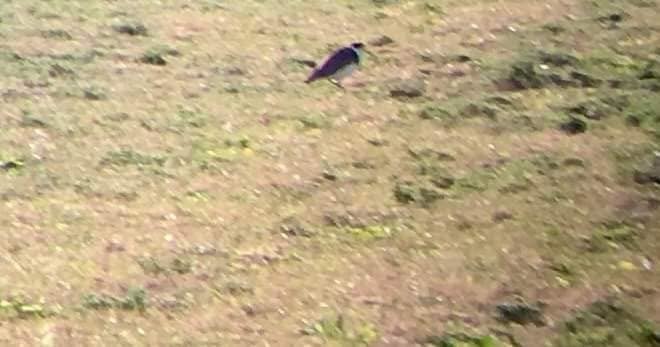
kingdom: Animalia
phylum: Chordata
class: Aves
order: Charadriiformes
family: Charadriidae
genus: Vanellus
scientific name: Vanellus miles
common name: Masked lapwing
